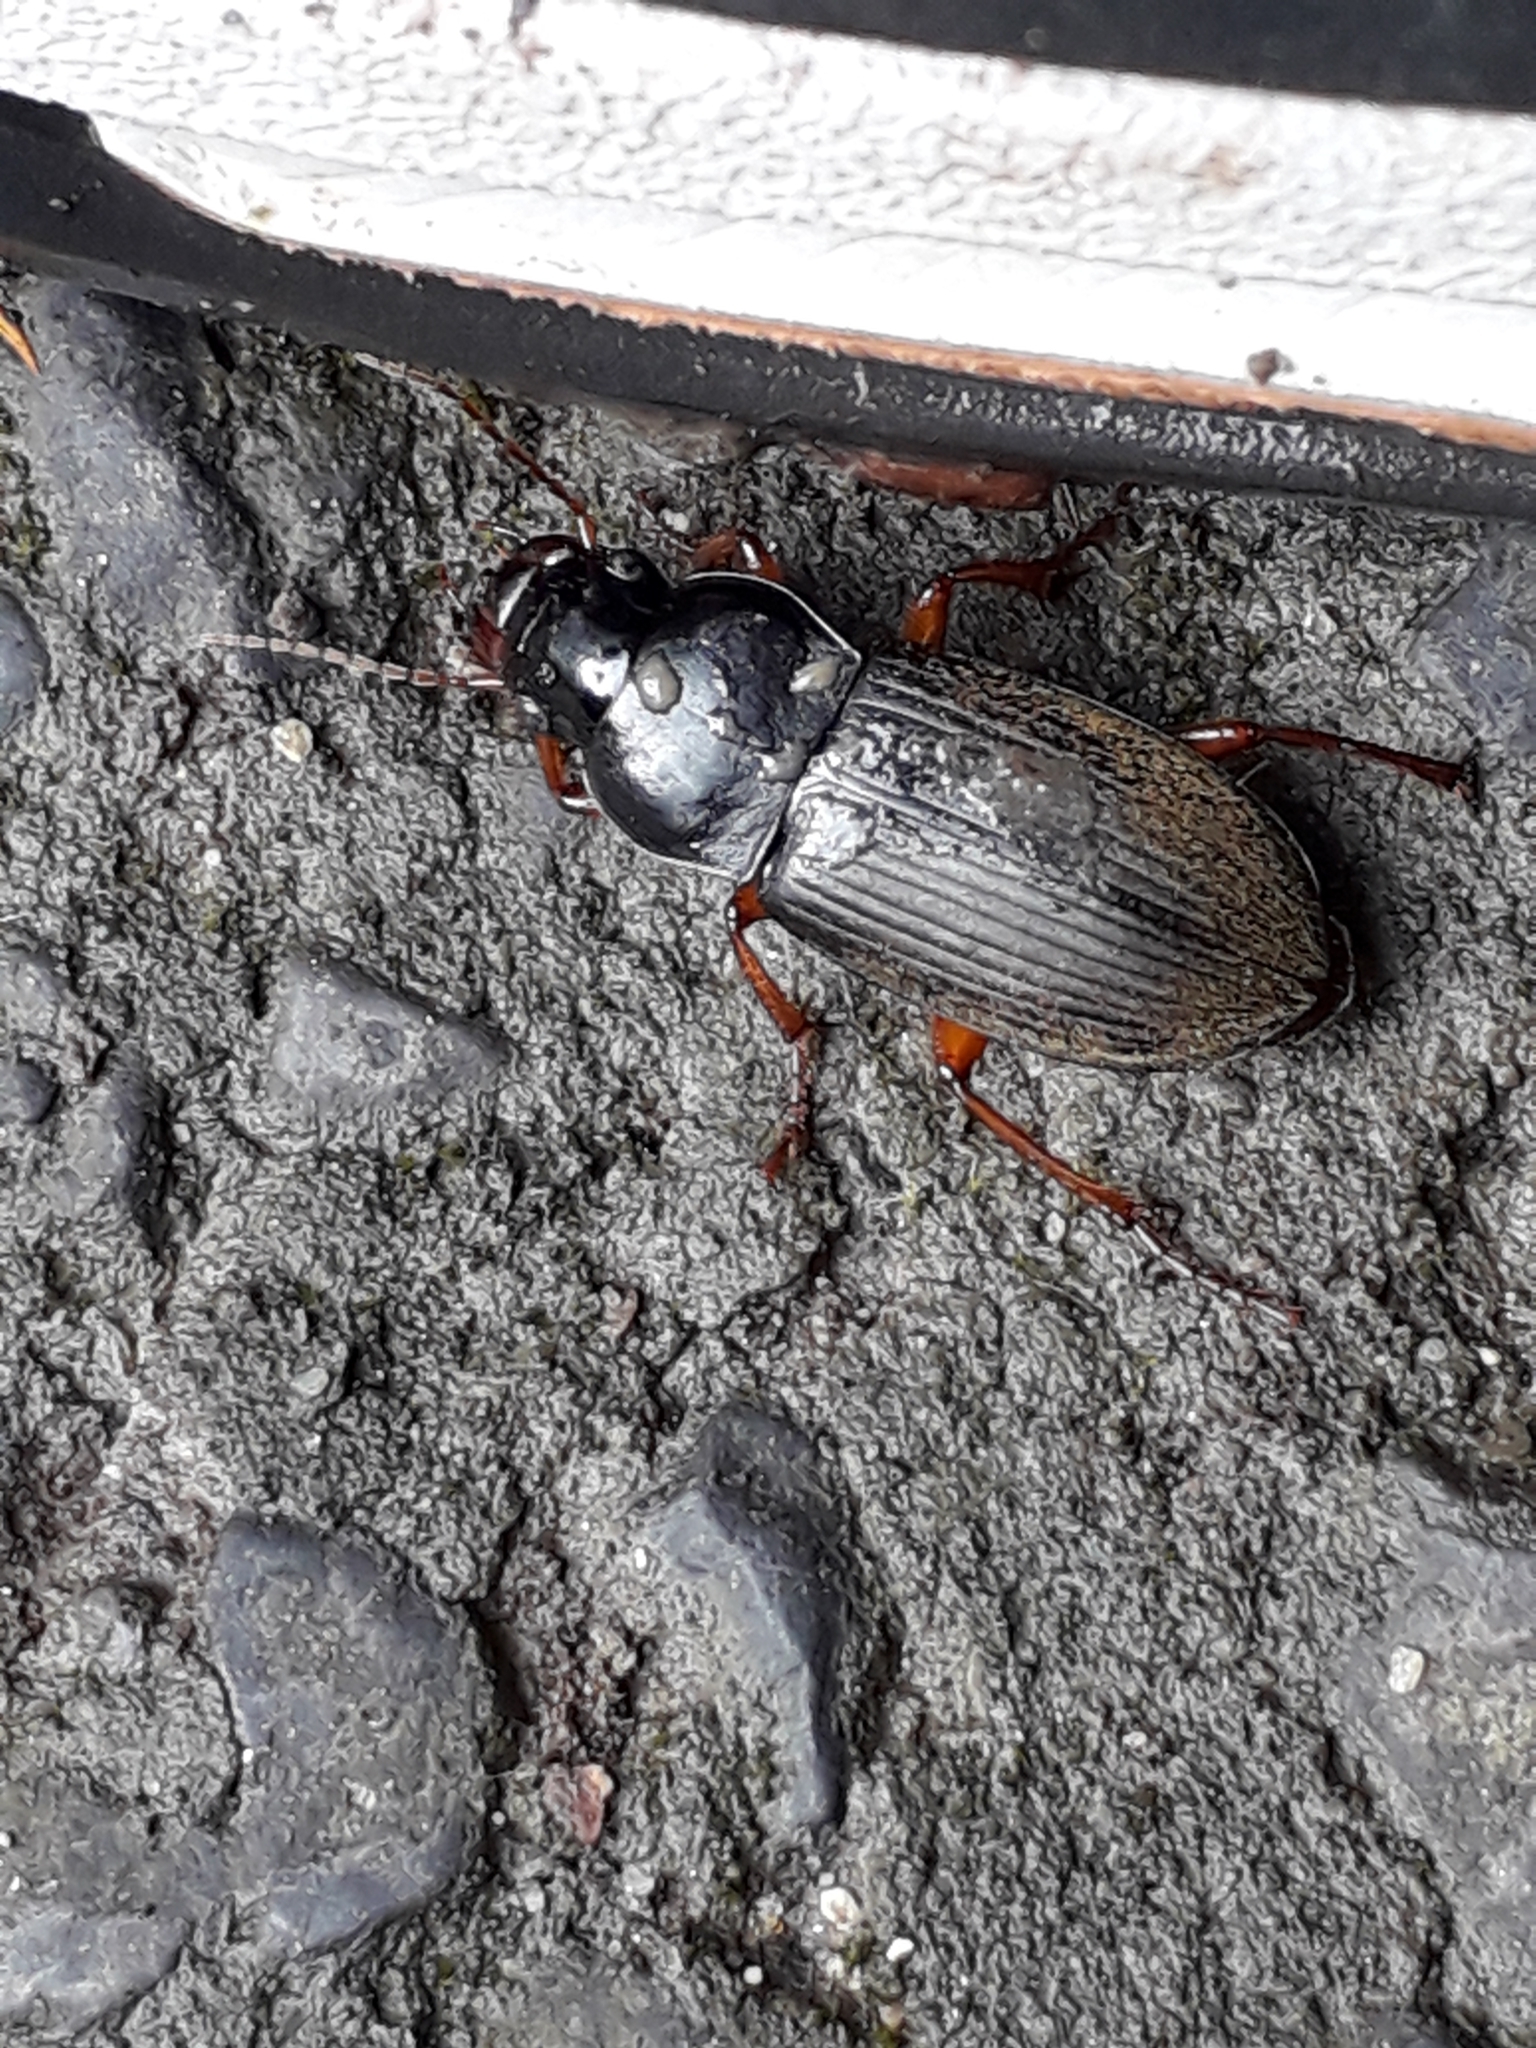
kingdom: Animalia
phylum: Arthropoda
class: Insecta
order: Coleoptera
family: Carabidae
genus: Harpalus
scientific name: Harpalus rufipes
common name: Strawberry harp ground beetle
